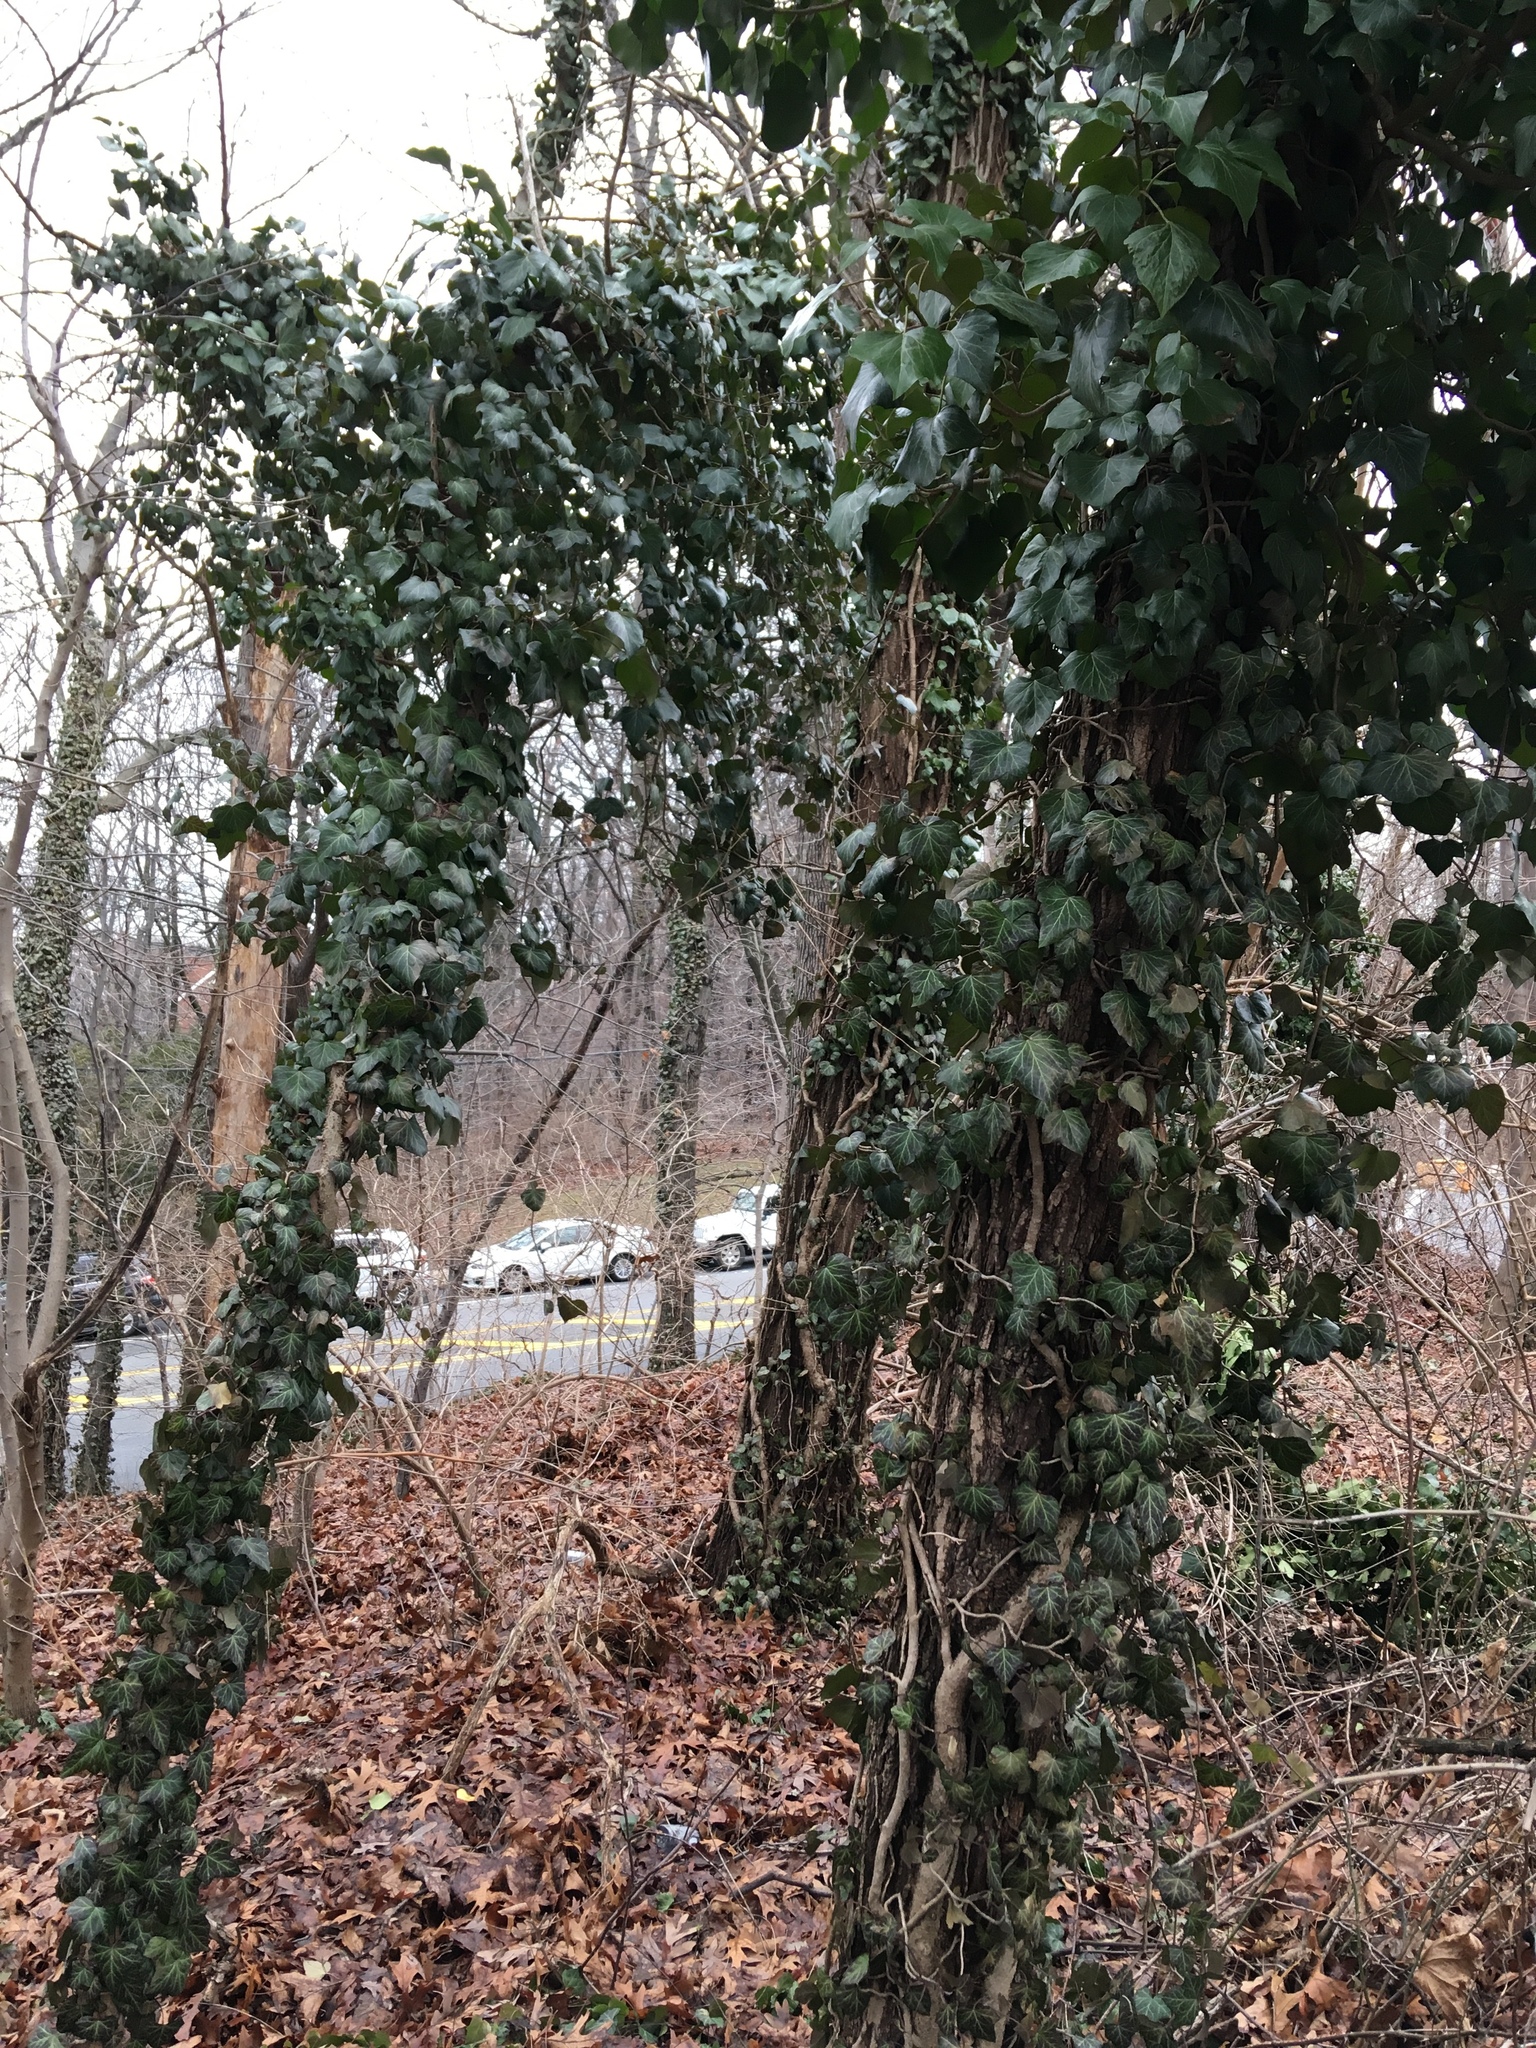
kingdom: Plantae
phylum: Tracheophyta
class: Magnoliopsida
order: Apiales
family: Araliaceae
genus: Hedera
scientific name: Hedera helix
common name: Ivy
